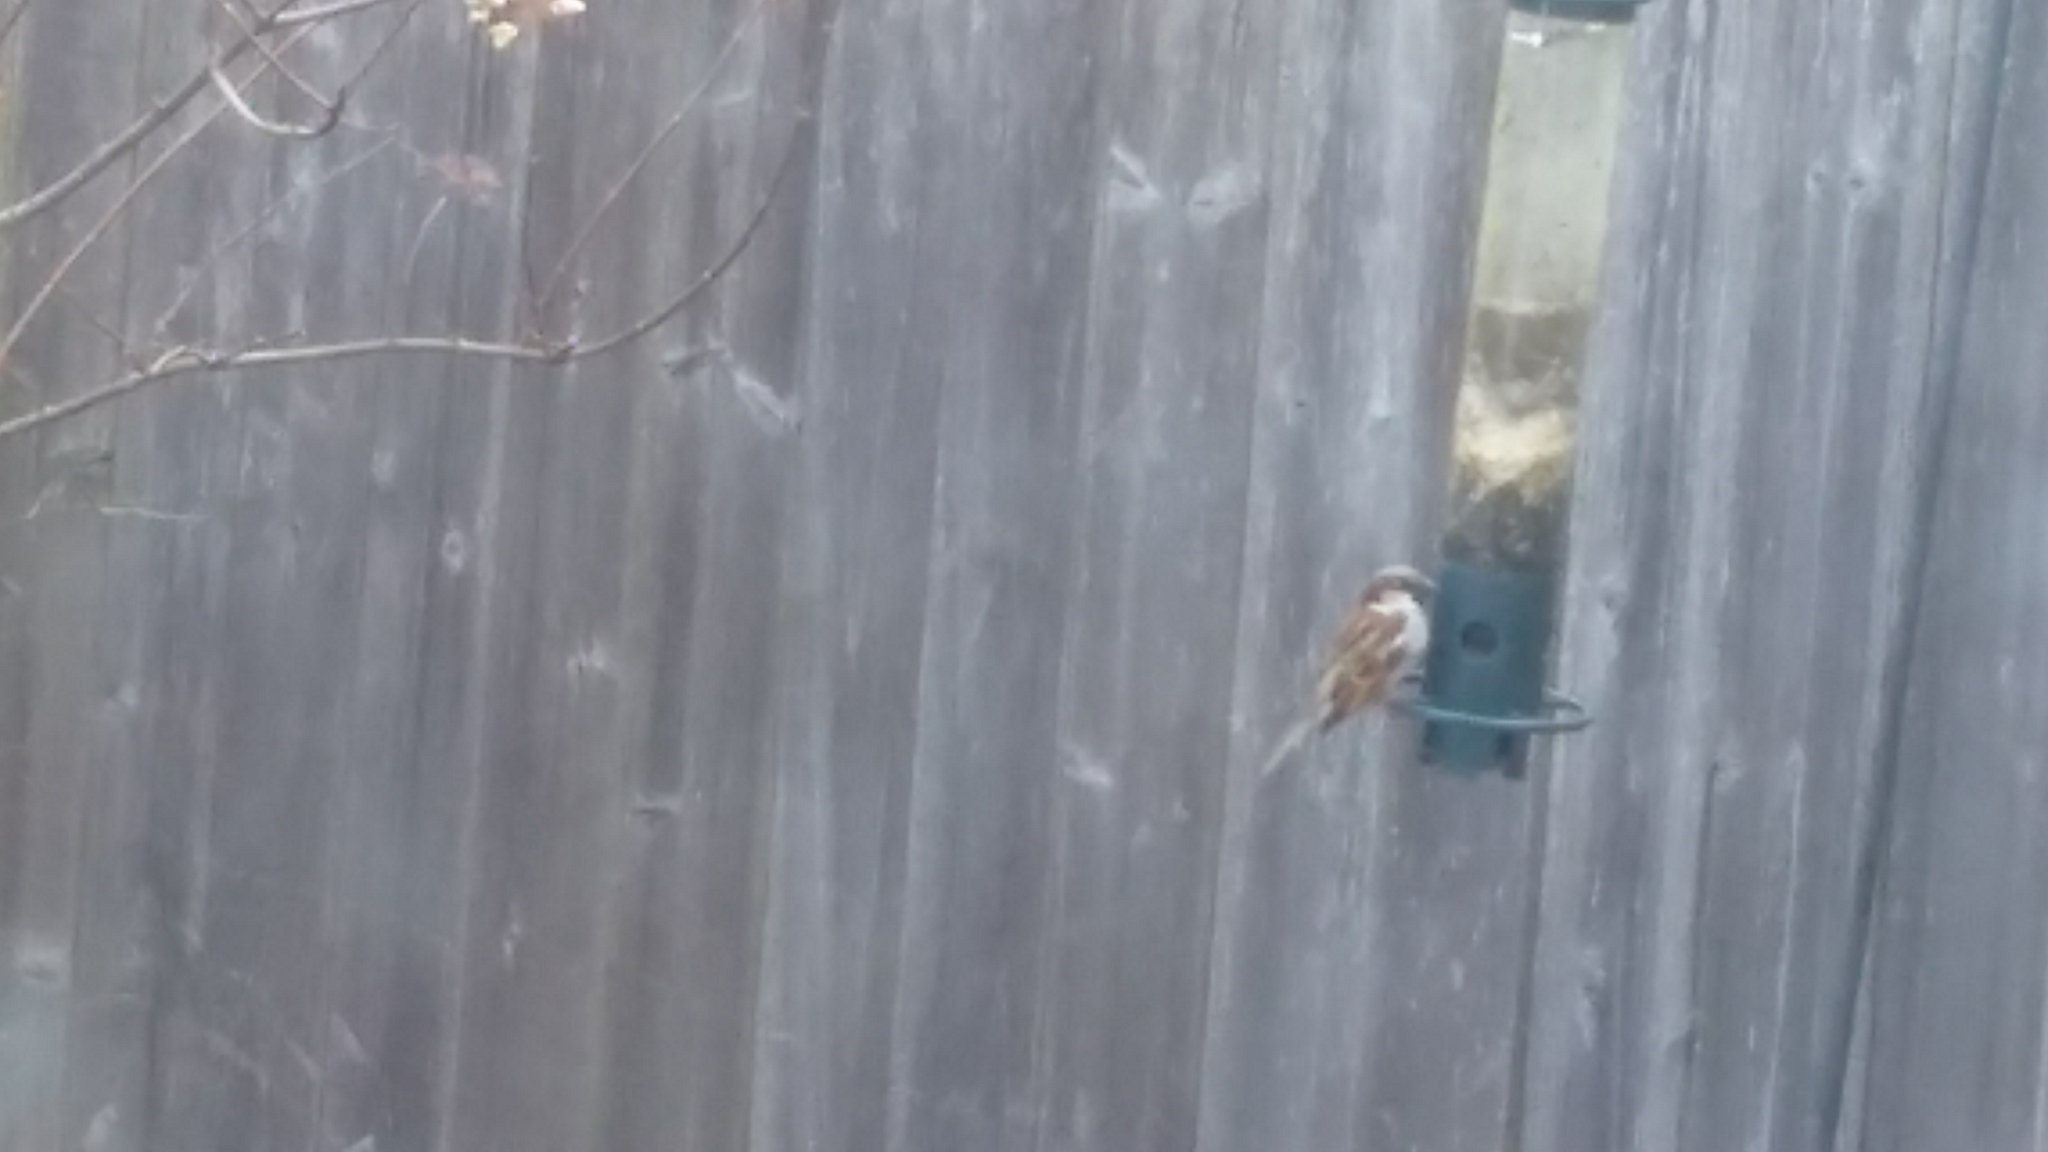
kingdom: Animalia
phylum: Chordata
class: Aves
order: Passeriformes
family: Passeridae
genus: Passer
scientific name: Passer domesticus
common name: House sparrow
